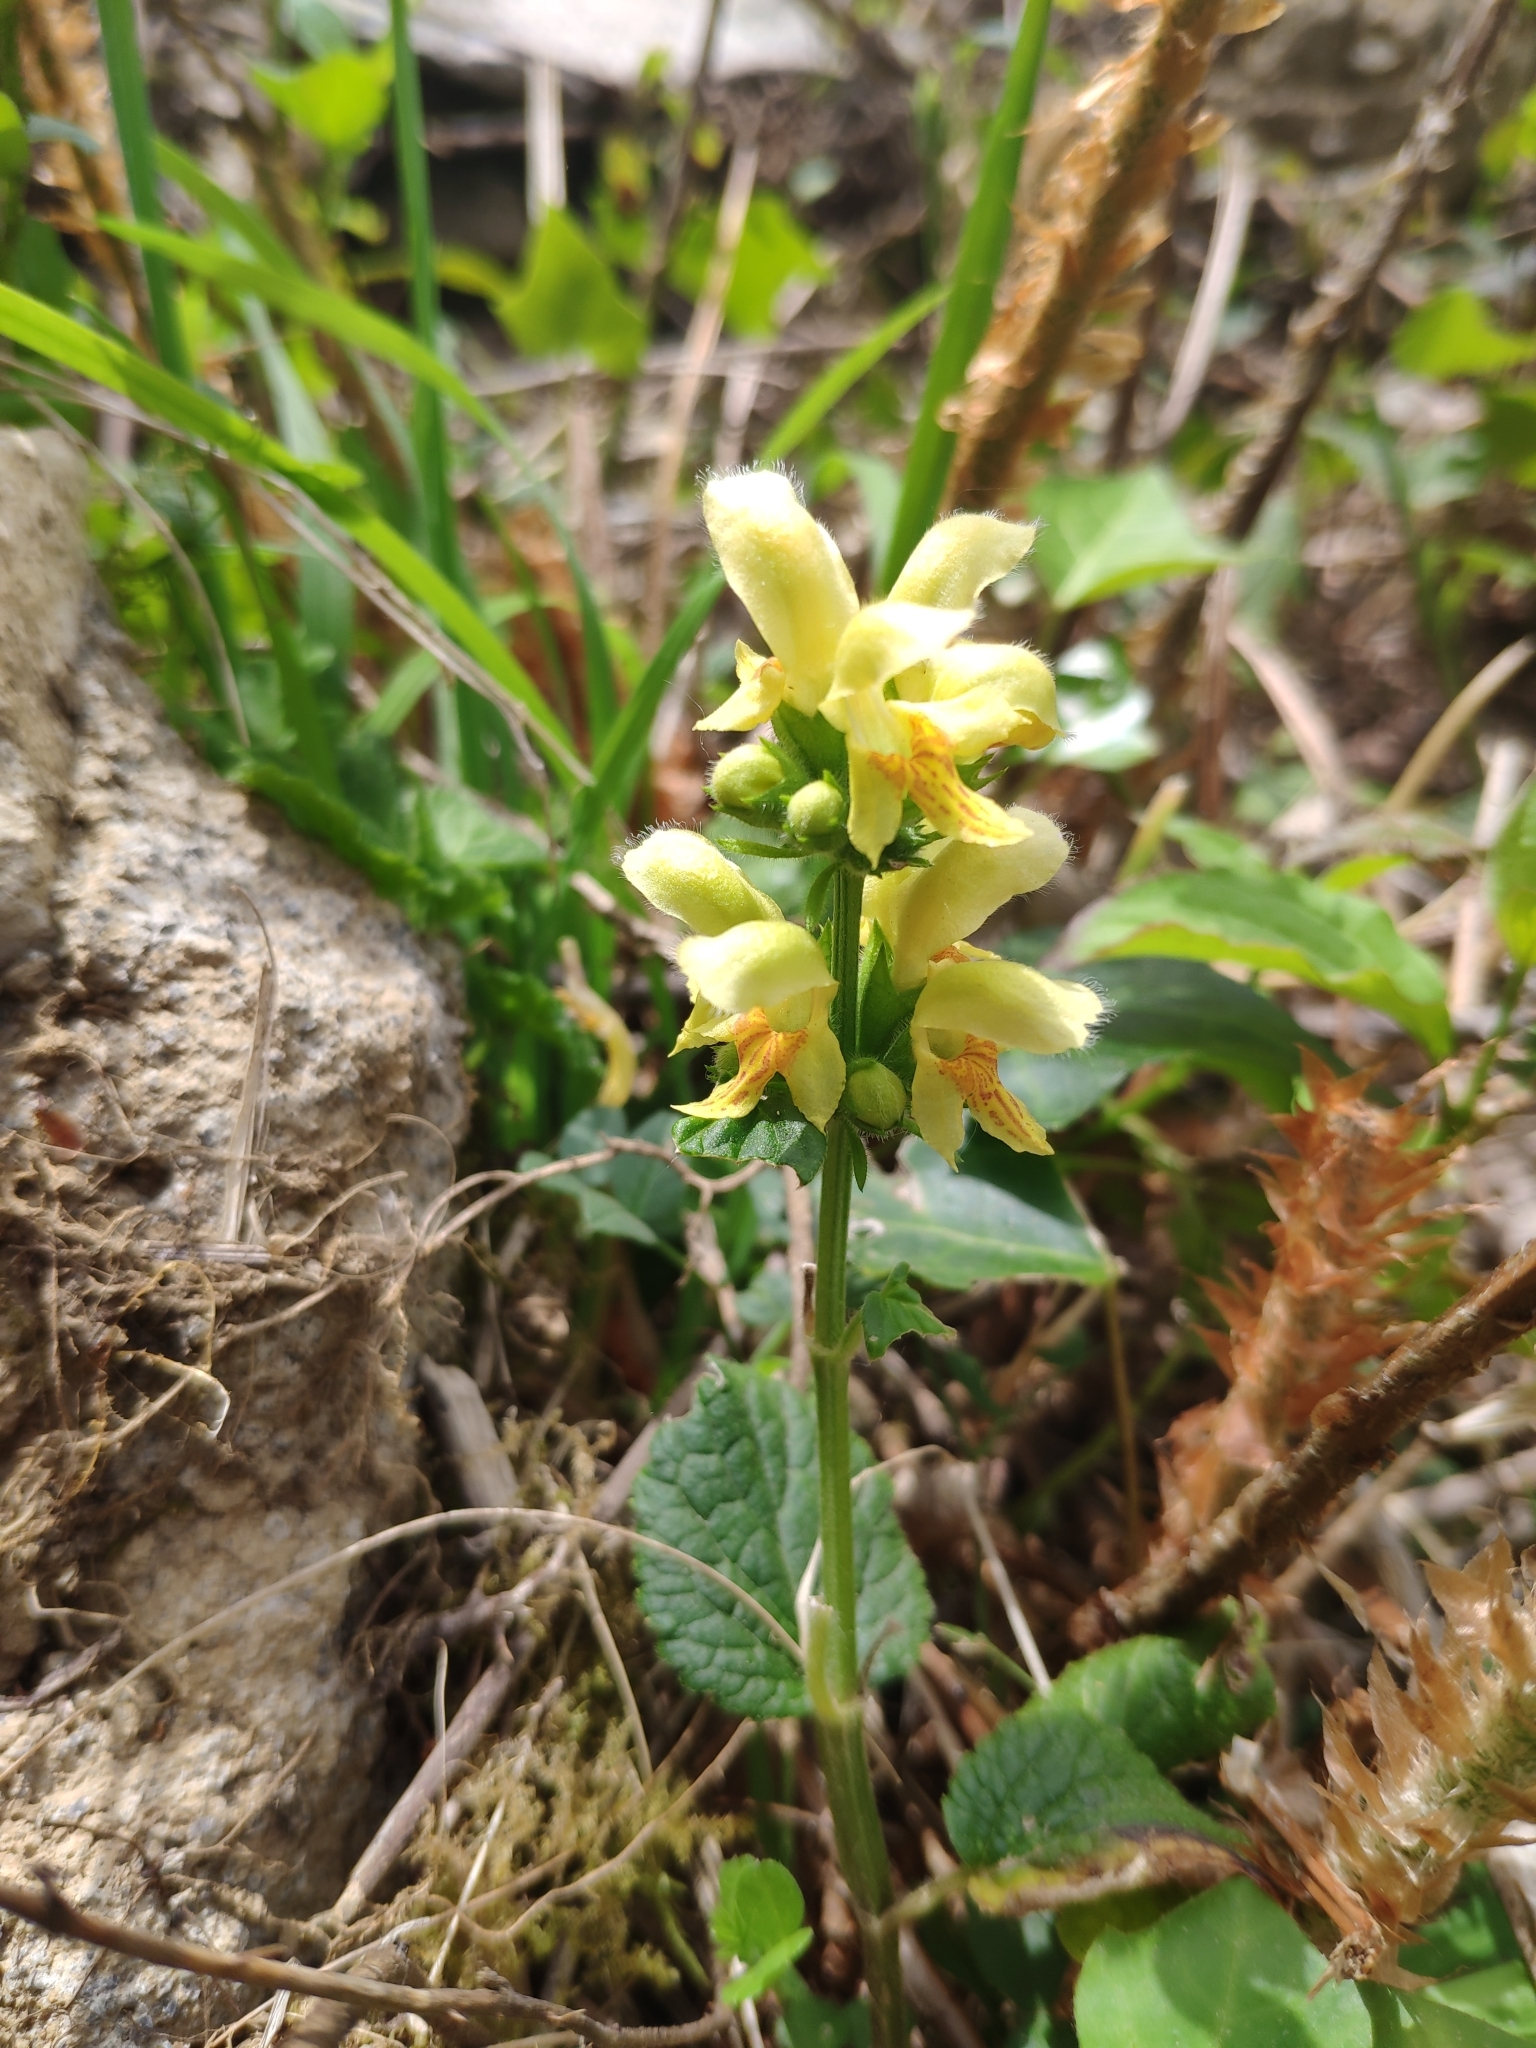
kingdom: Plantae
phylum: Tracheophyta
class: Magnoliopsida
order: Lamiales
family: Lamiaceae
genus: Lamium
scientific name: Lamium galeobdolon
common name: Yellow archangel
